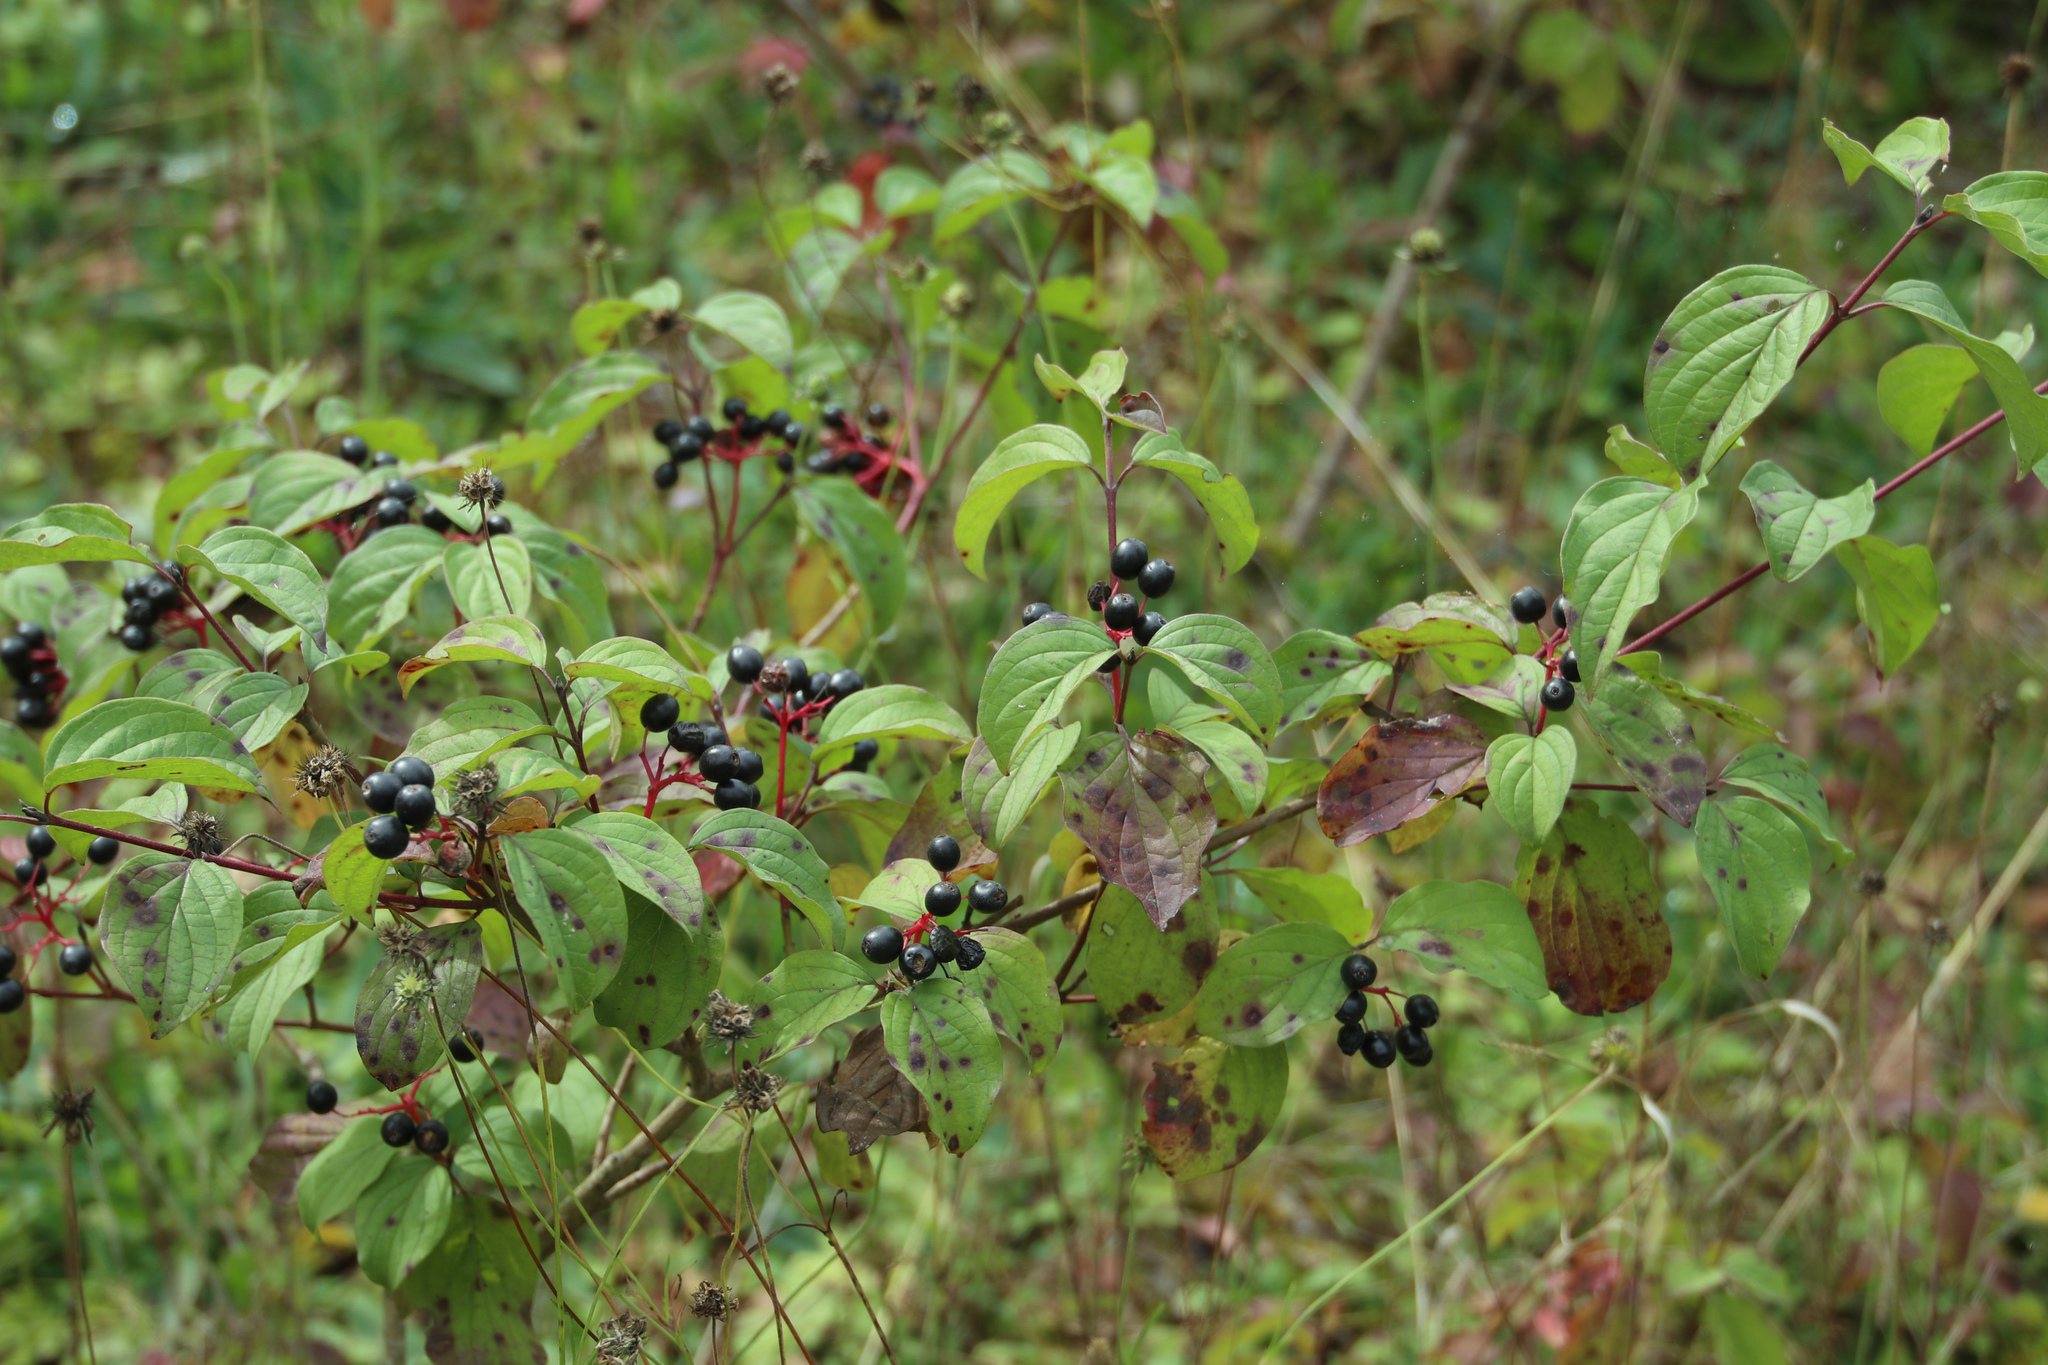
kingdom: Plantae
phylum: Tracheophyta
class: Magnoliopsida
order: Cornales
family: Cornaceae
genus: Cornus
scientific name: Cornus sanguinea
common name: Dogwood
